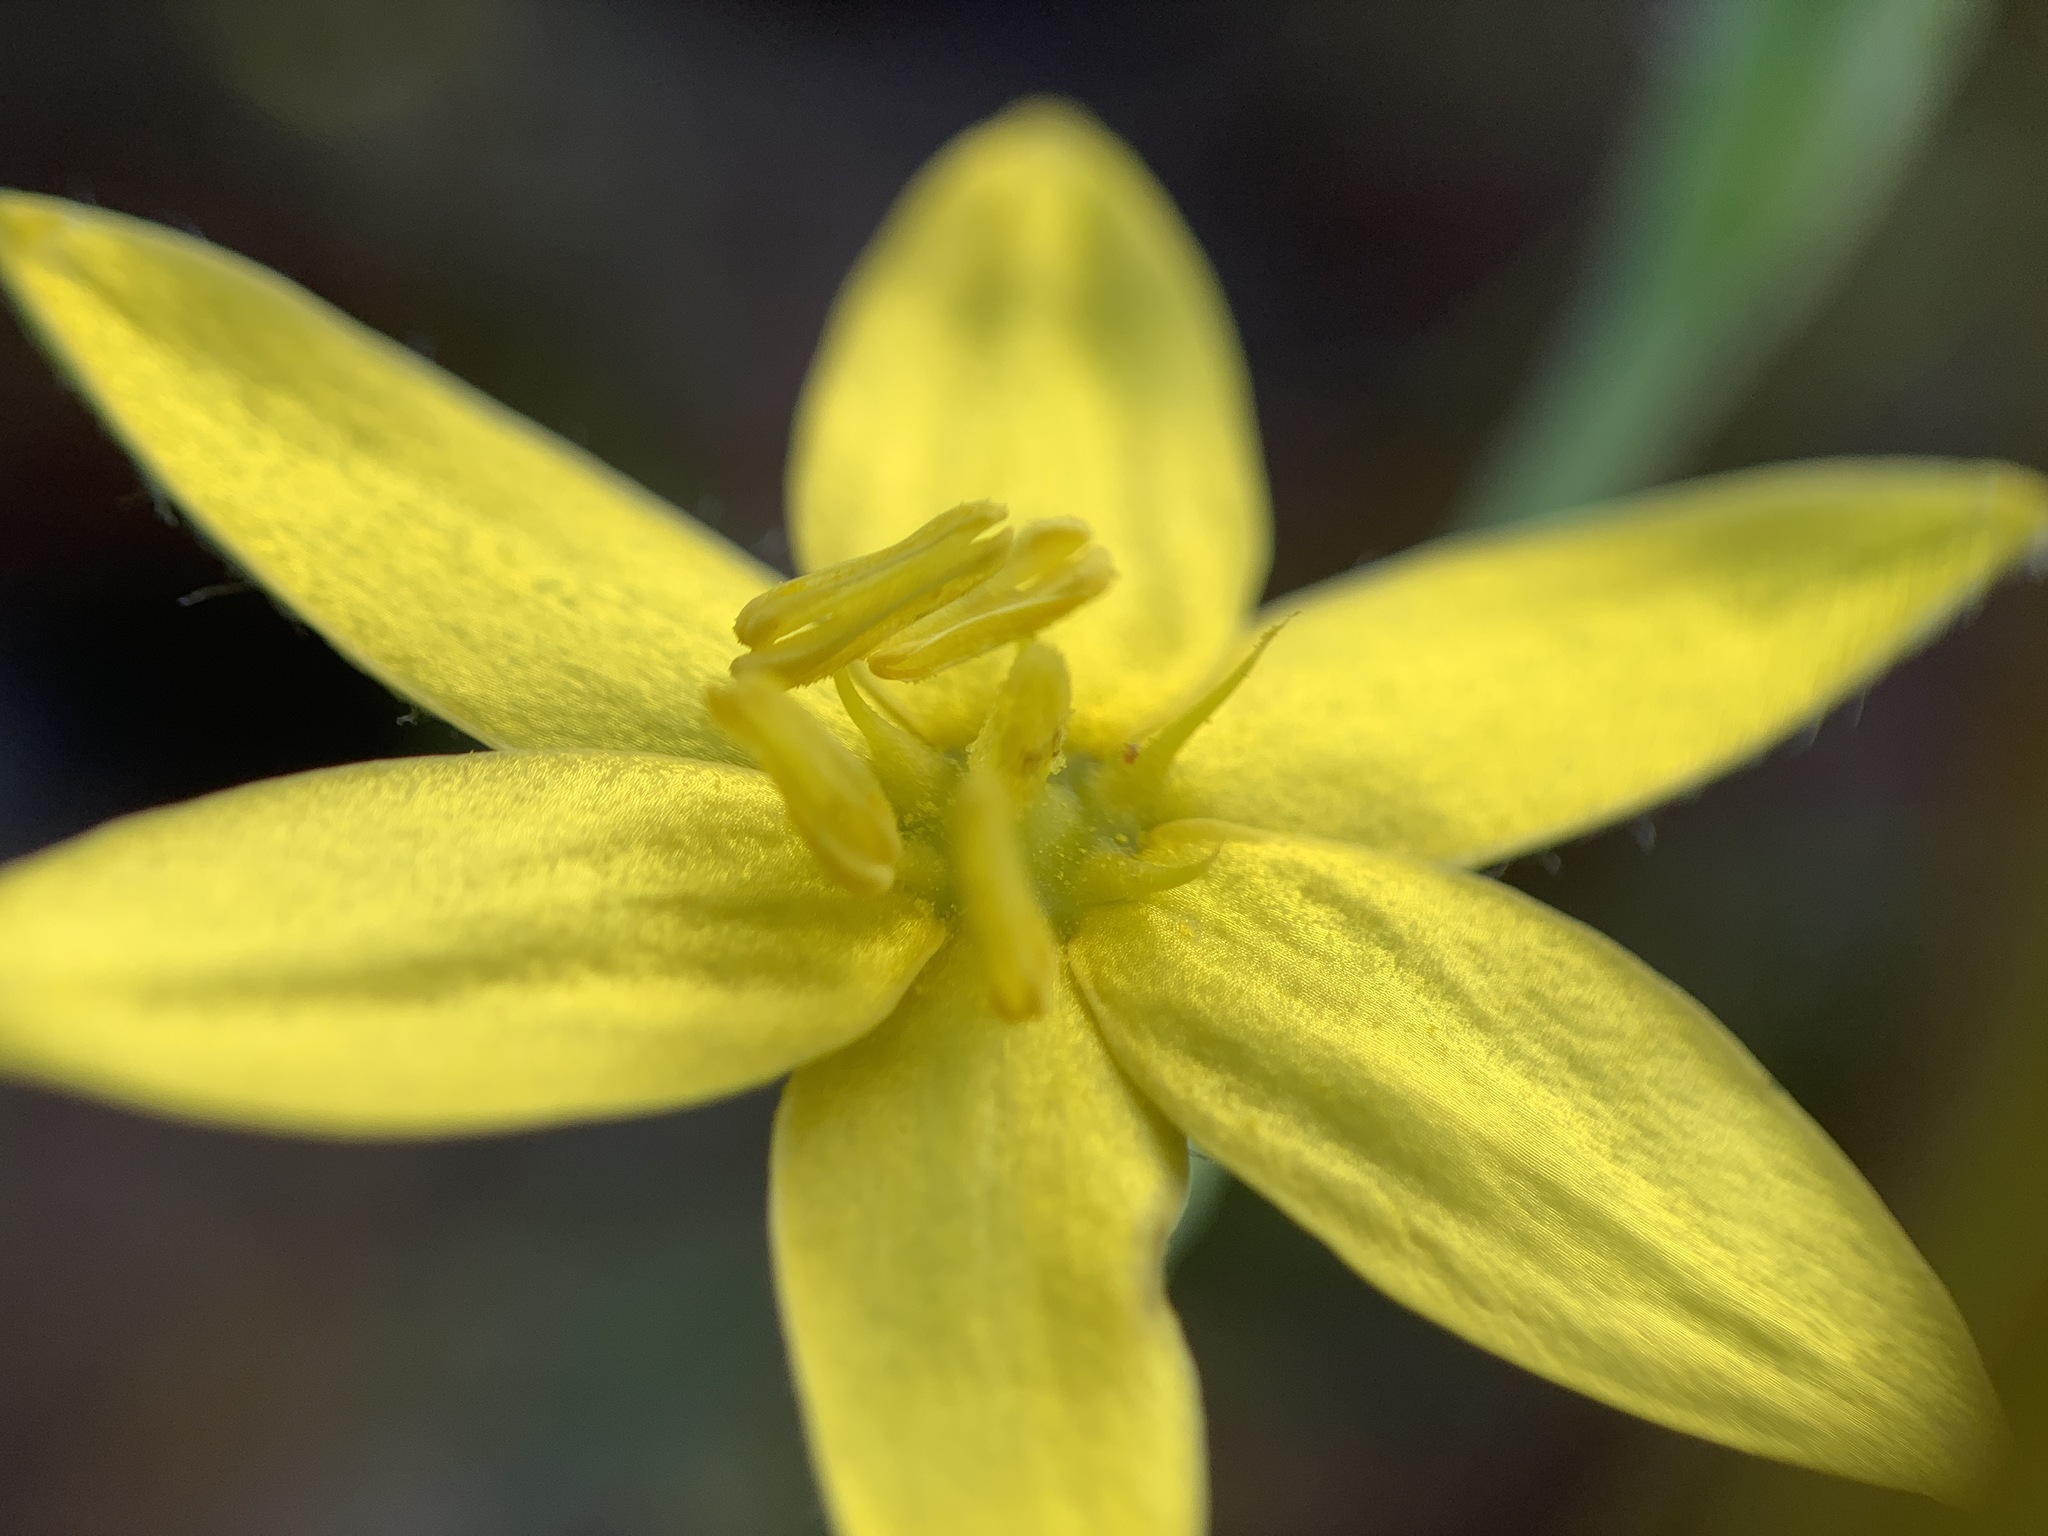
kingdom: Plantae
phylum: Tracheophyta
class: Liliopsida
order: Asparagales
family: Hypoxidaceae
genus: Hypoxis
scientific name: Hypoxis juncea
